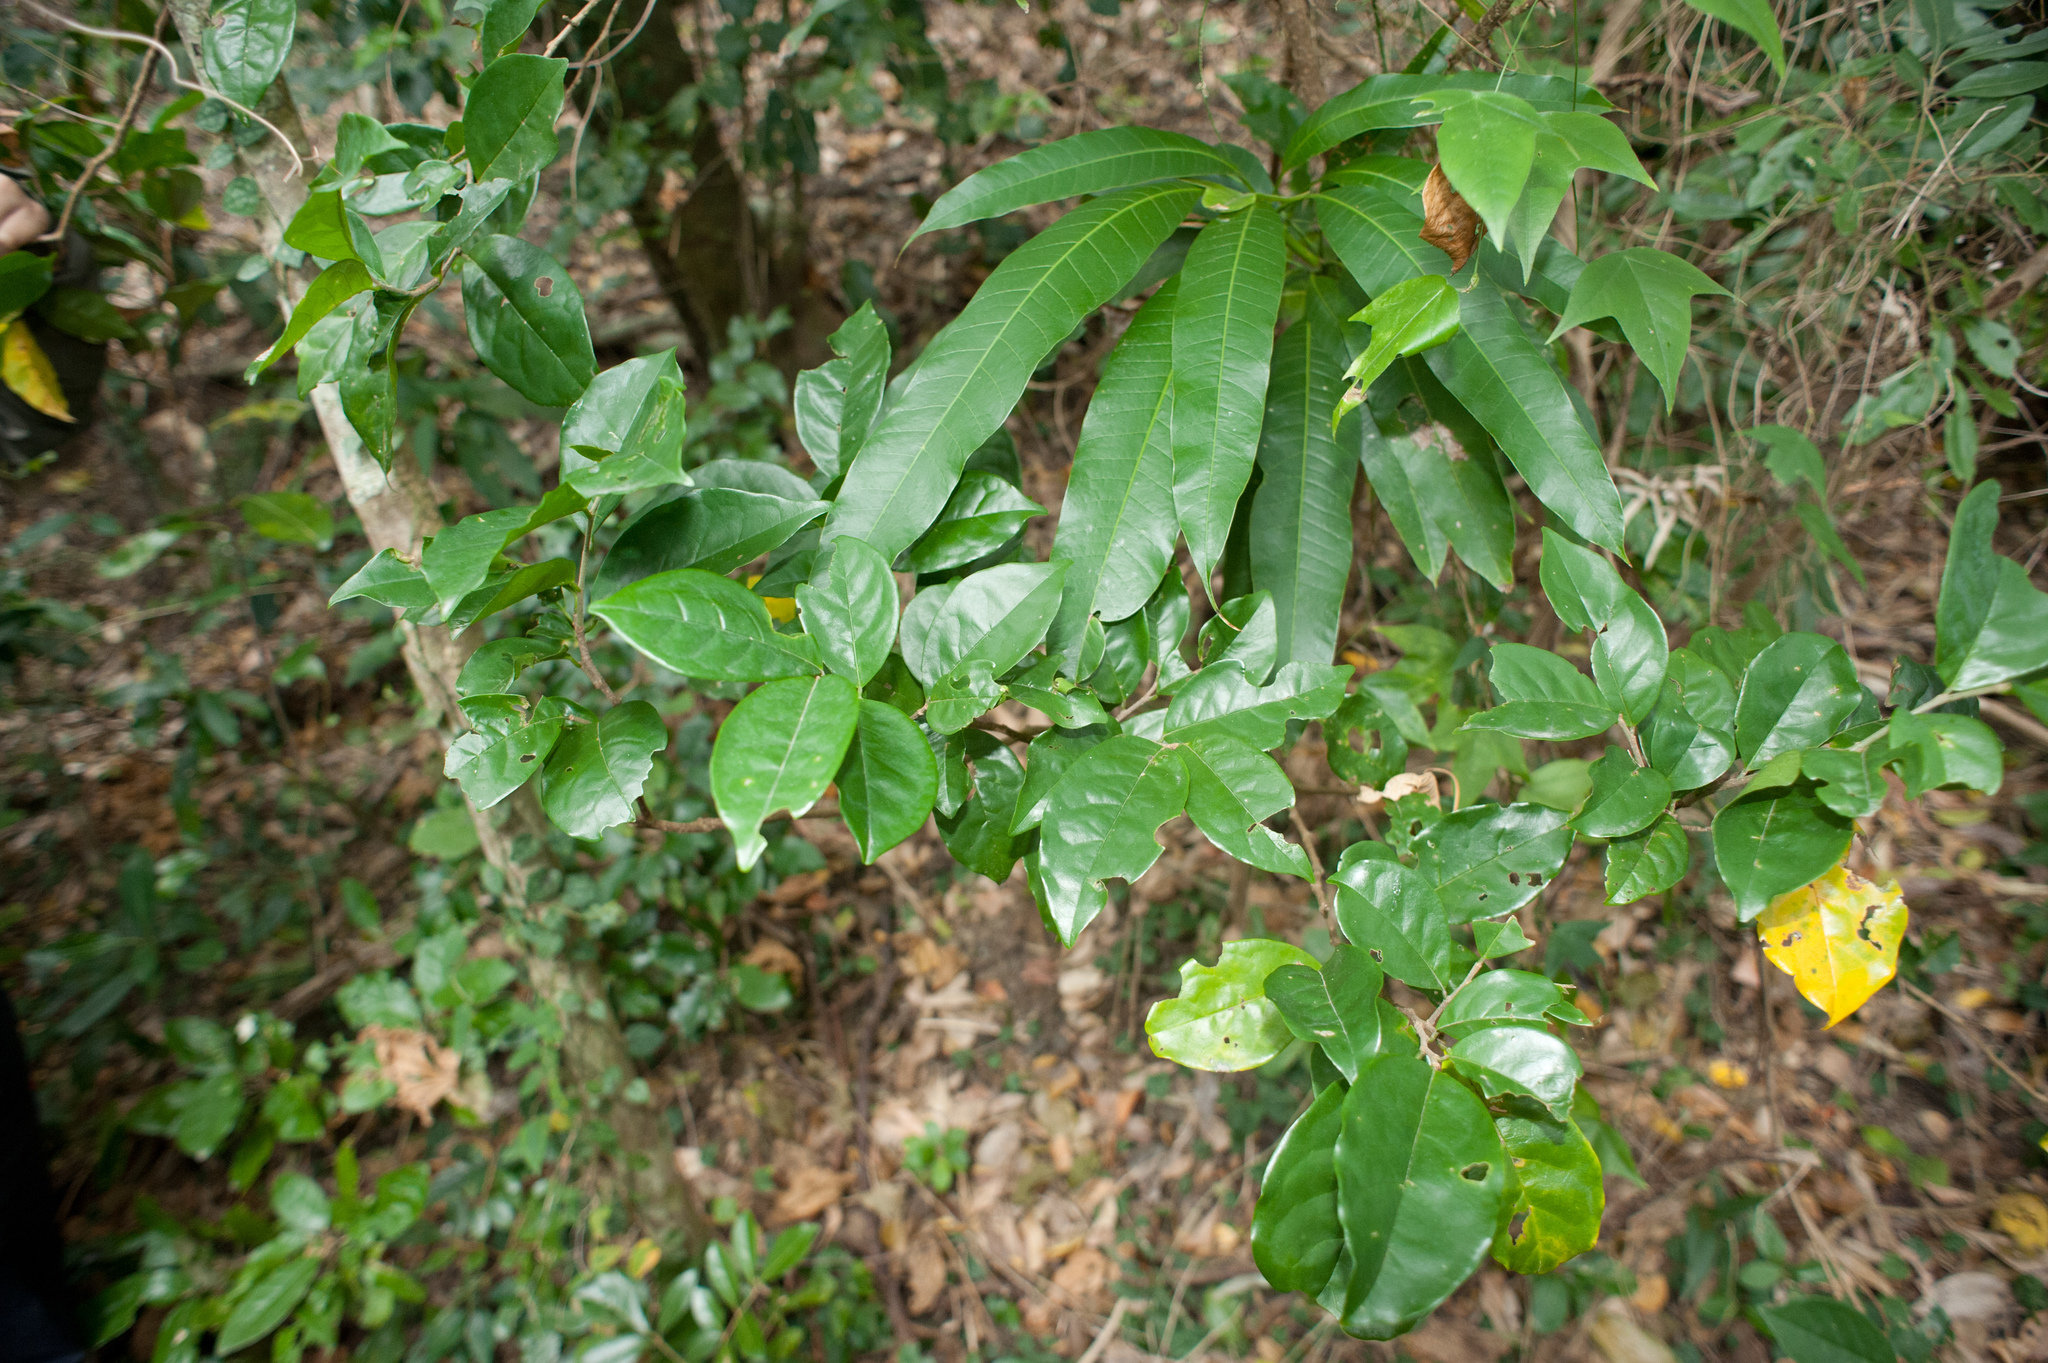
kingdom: Plantae
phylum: Tracheophyta
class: Magnoliopsida
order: Malpighiales
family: Phyllanthaceae
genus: Antidesma
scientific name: Antidesma montanum
